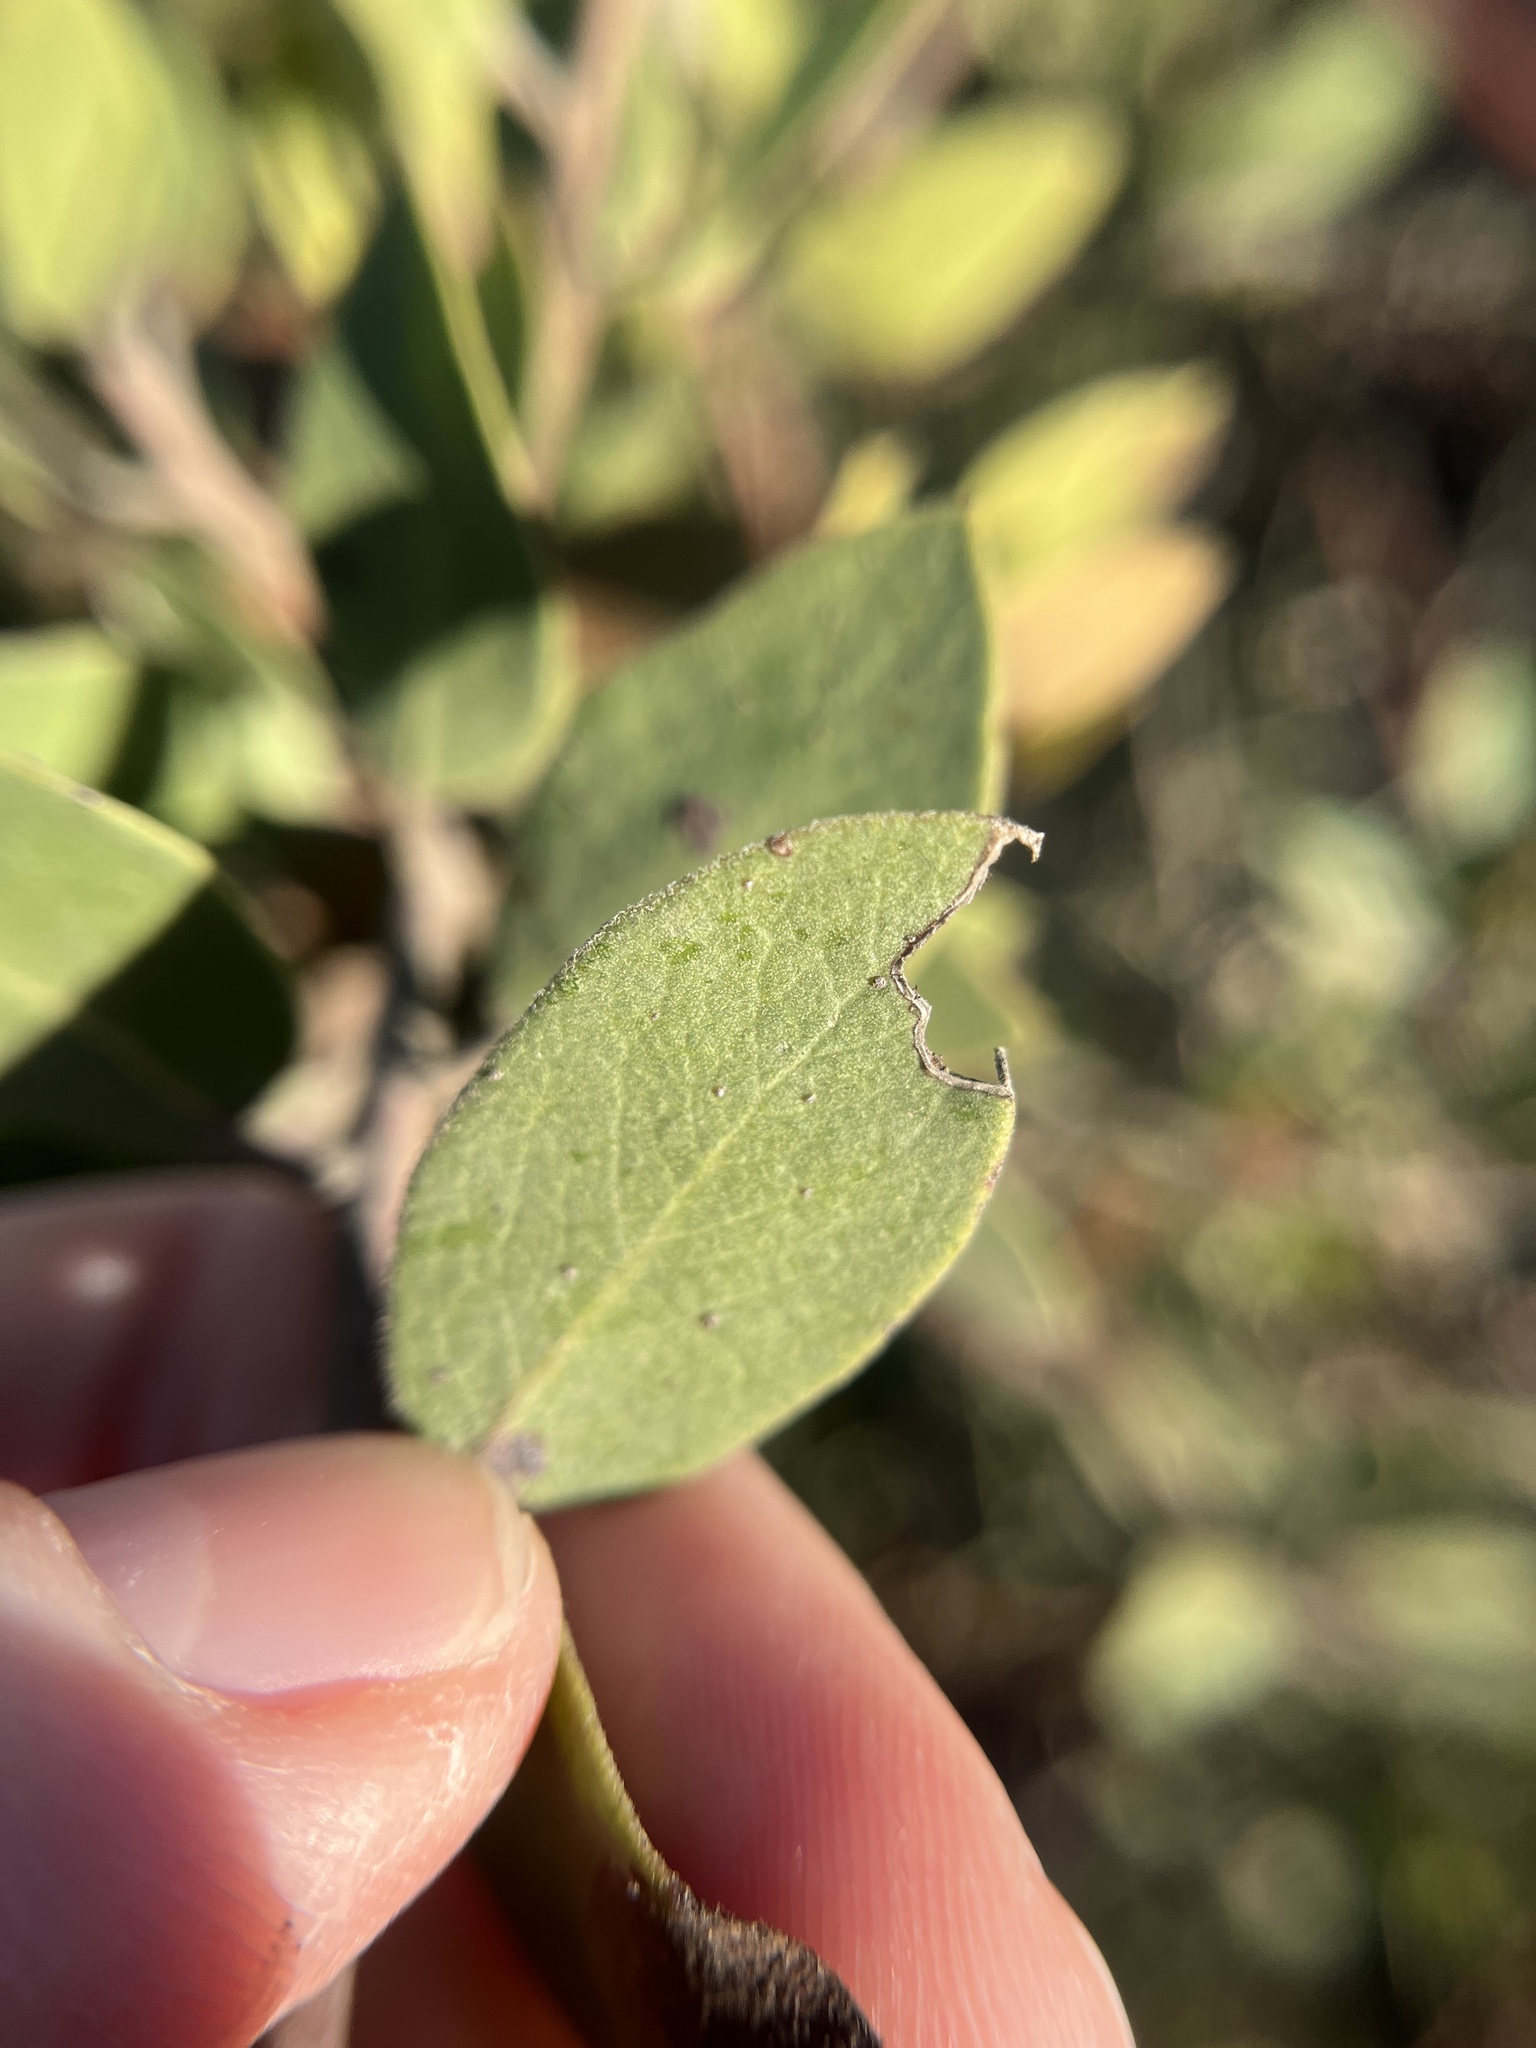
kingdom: Plantae
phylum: Tracheophyta
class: Magnoliopsida
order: Ericales
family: Ericaceae
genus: Arctostaphylos
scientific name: Arctostaphylos rudis
